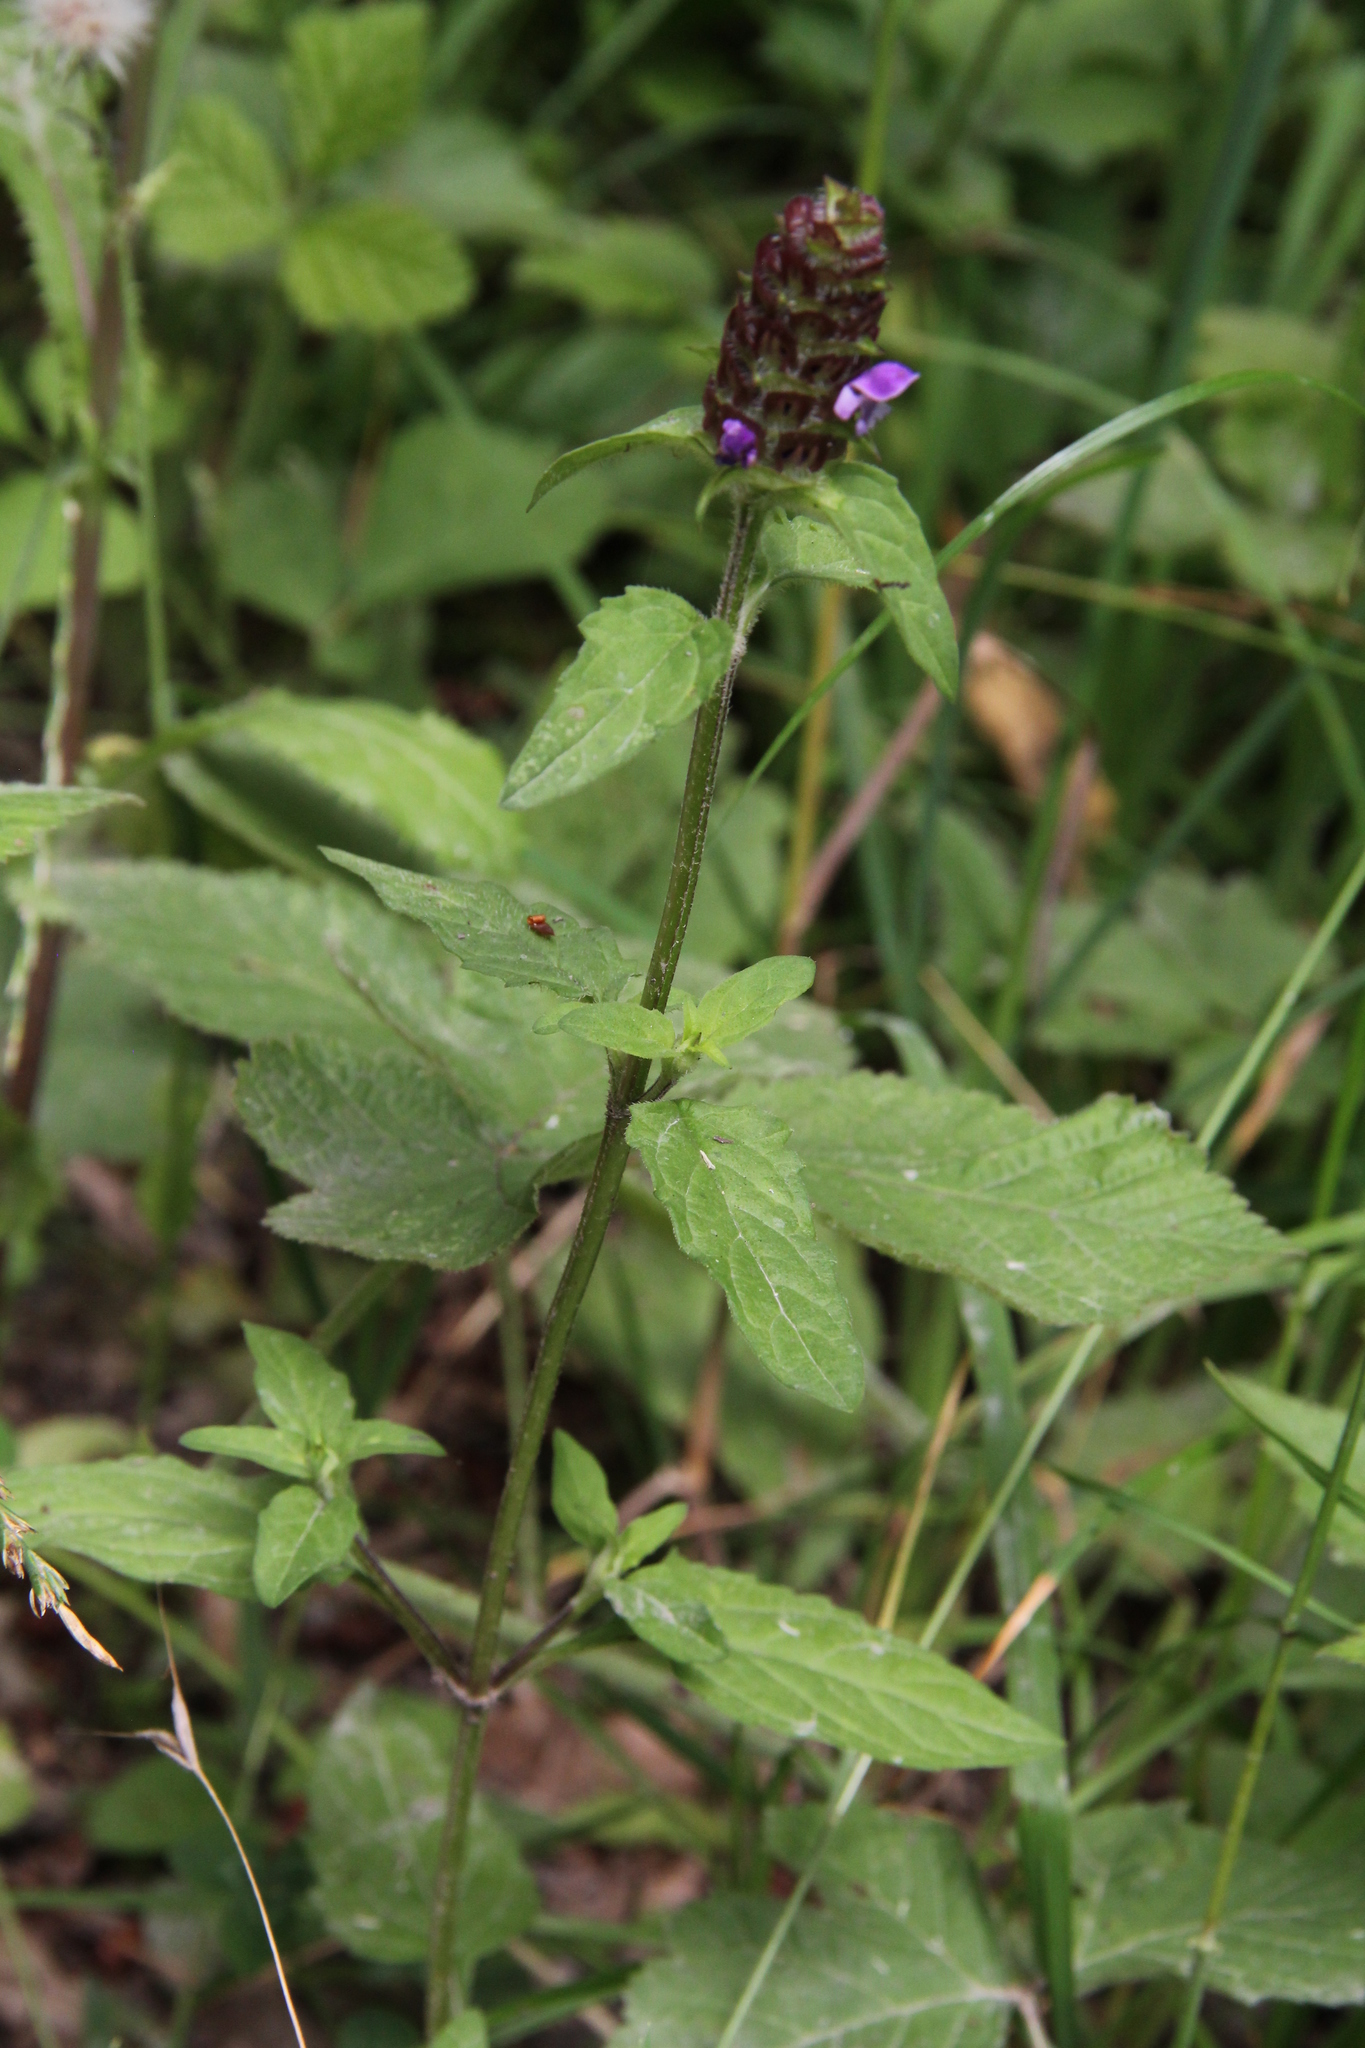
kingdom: Plantae
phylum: Tracheophyta
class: Magnoliopsida
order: Lamiales
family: Lamiaceae
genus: Prunella
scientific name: Prunella vulgaris
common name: Heal-all
